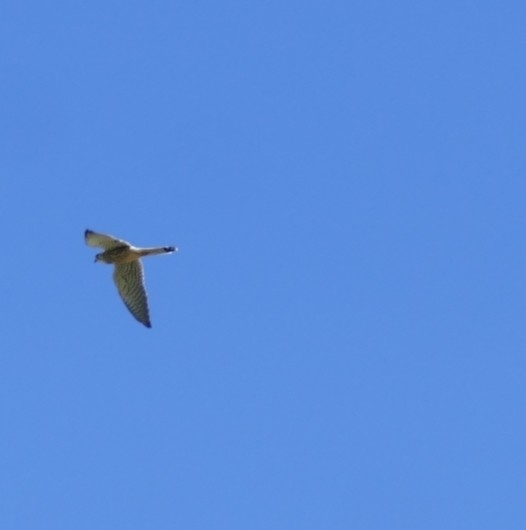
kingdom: Animalia
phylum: Chordata
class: Aves
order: Falconiformes
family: Falconidae
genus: Falco
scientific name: Falco tinnunculus
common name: Common kestrel
